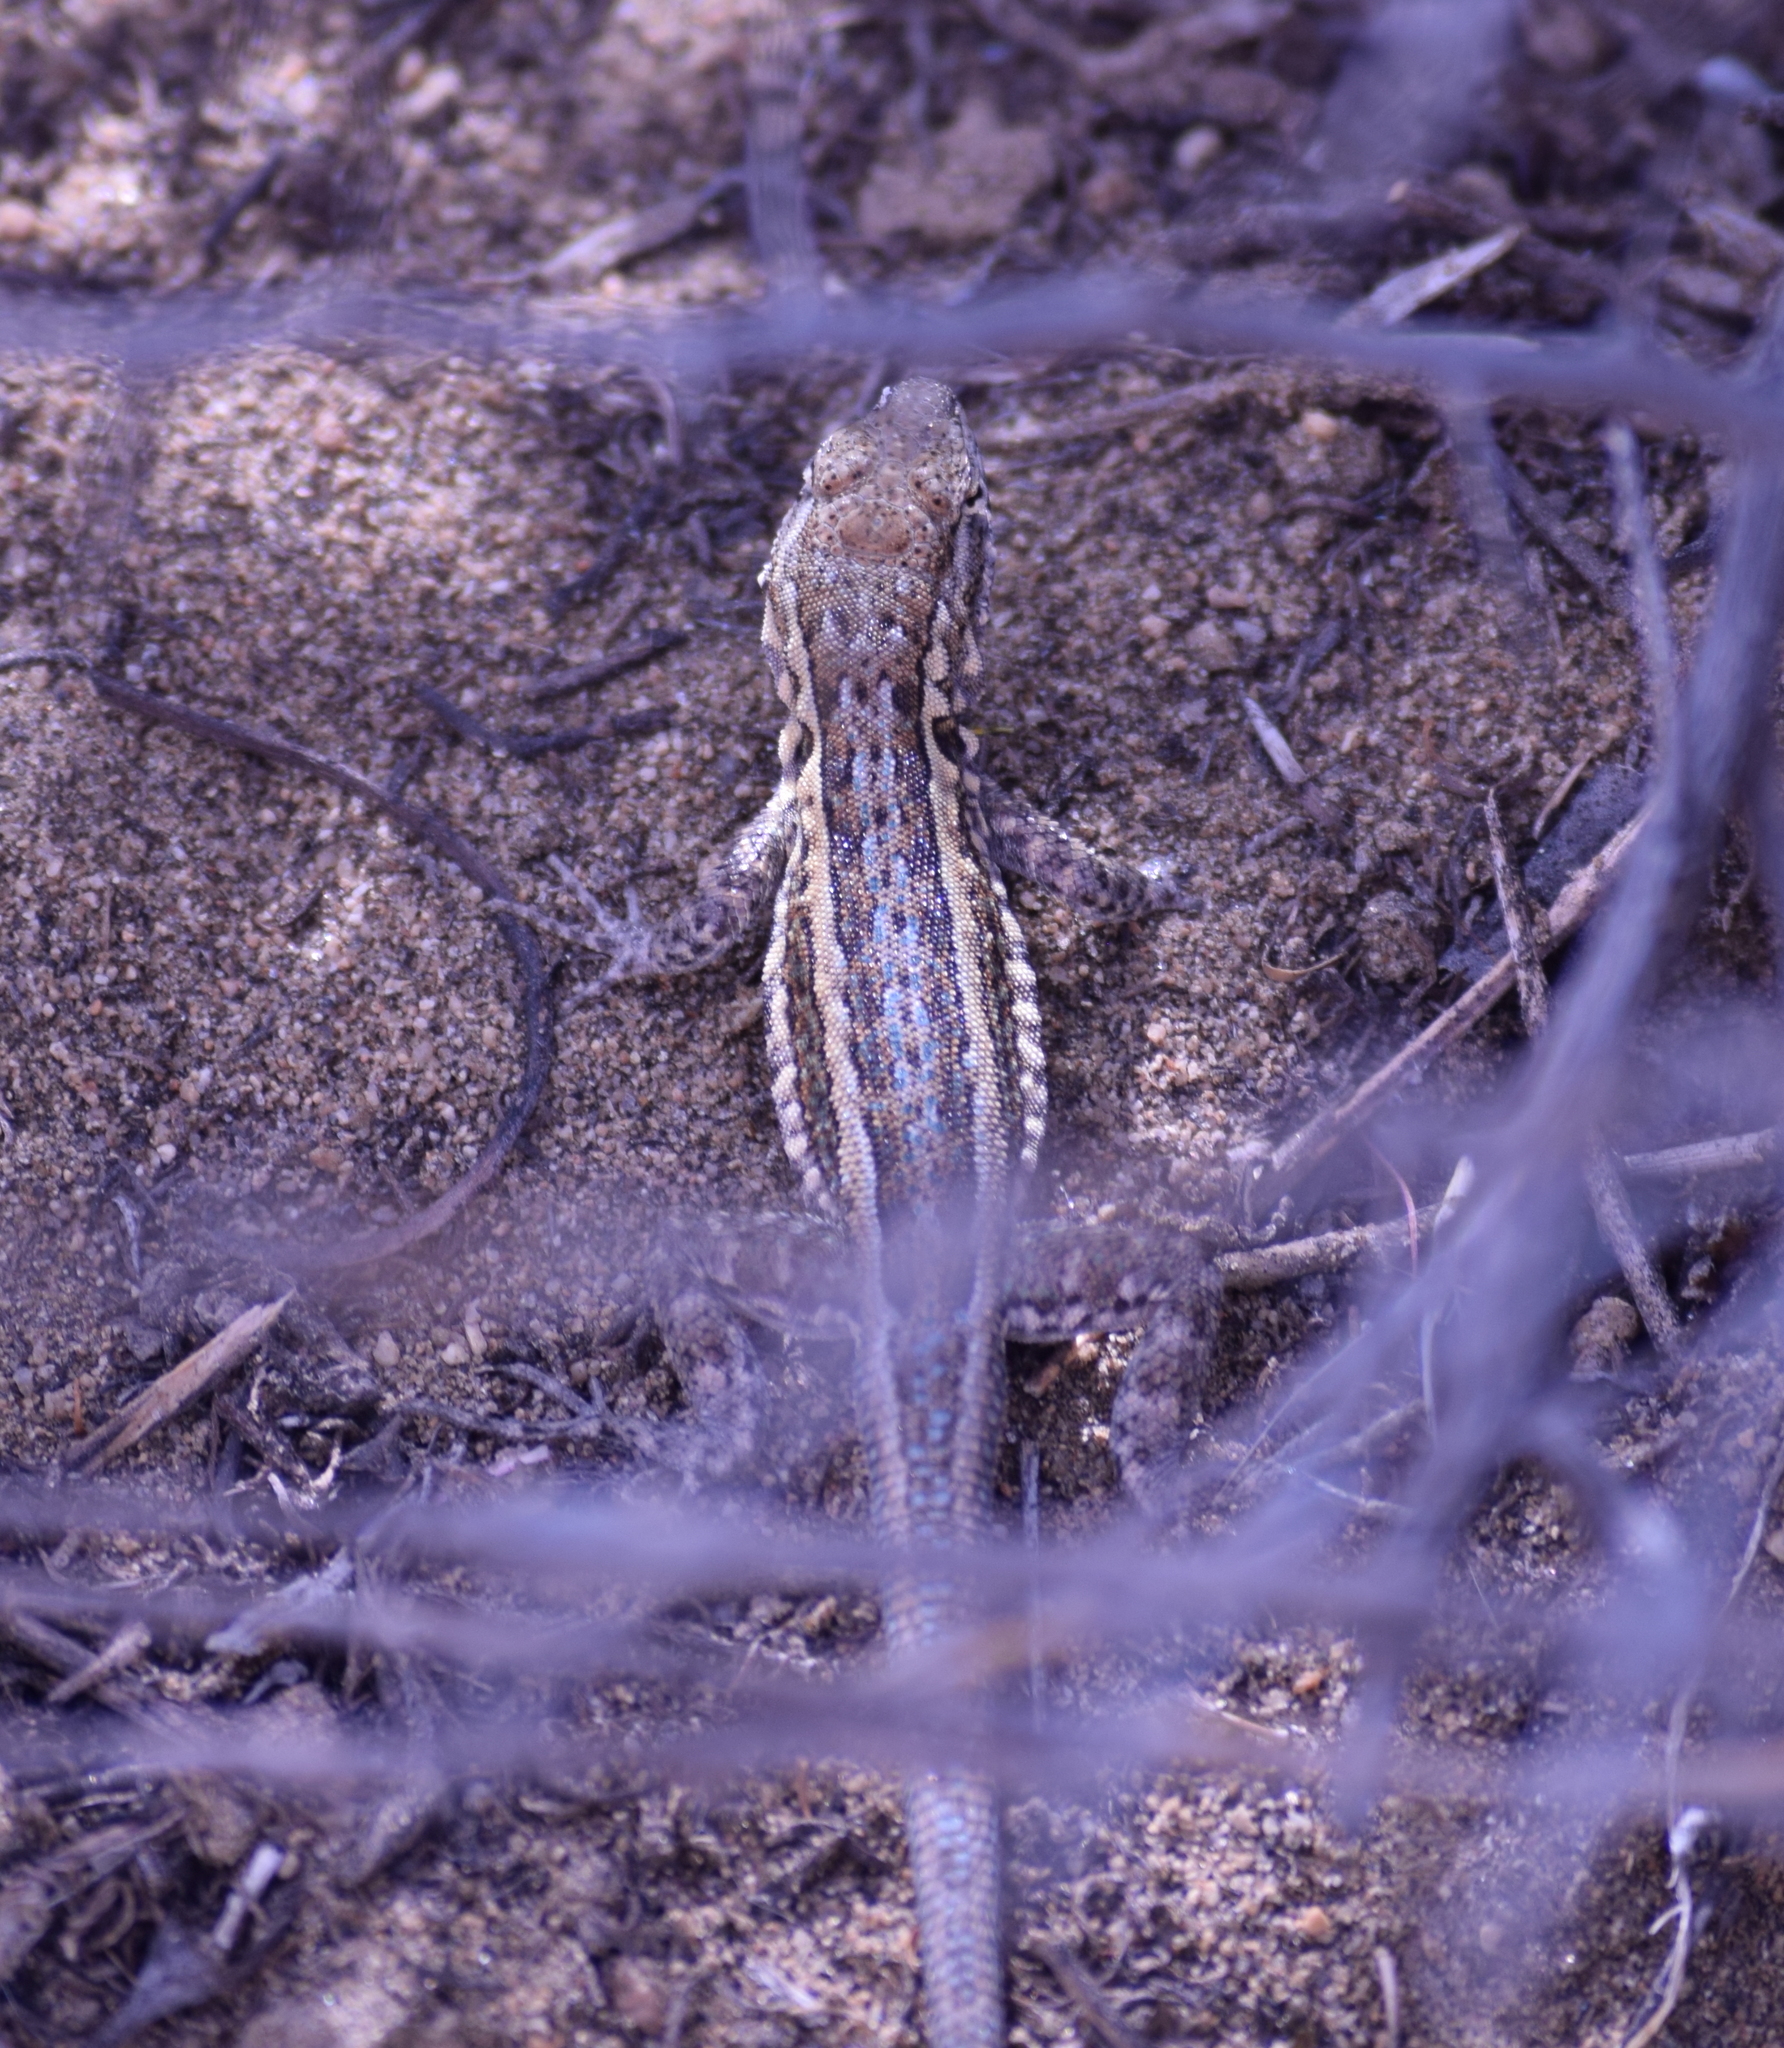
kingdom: Animalia
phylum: Chordata
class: Squamata
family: Phrynosomatidae
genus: Uta
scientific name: Uta stansburiana
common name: Side-blotched lizard
